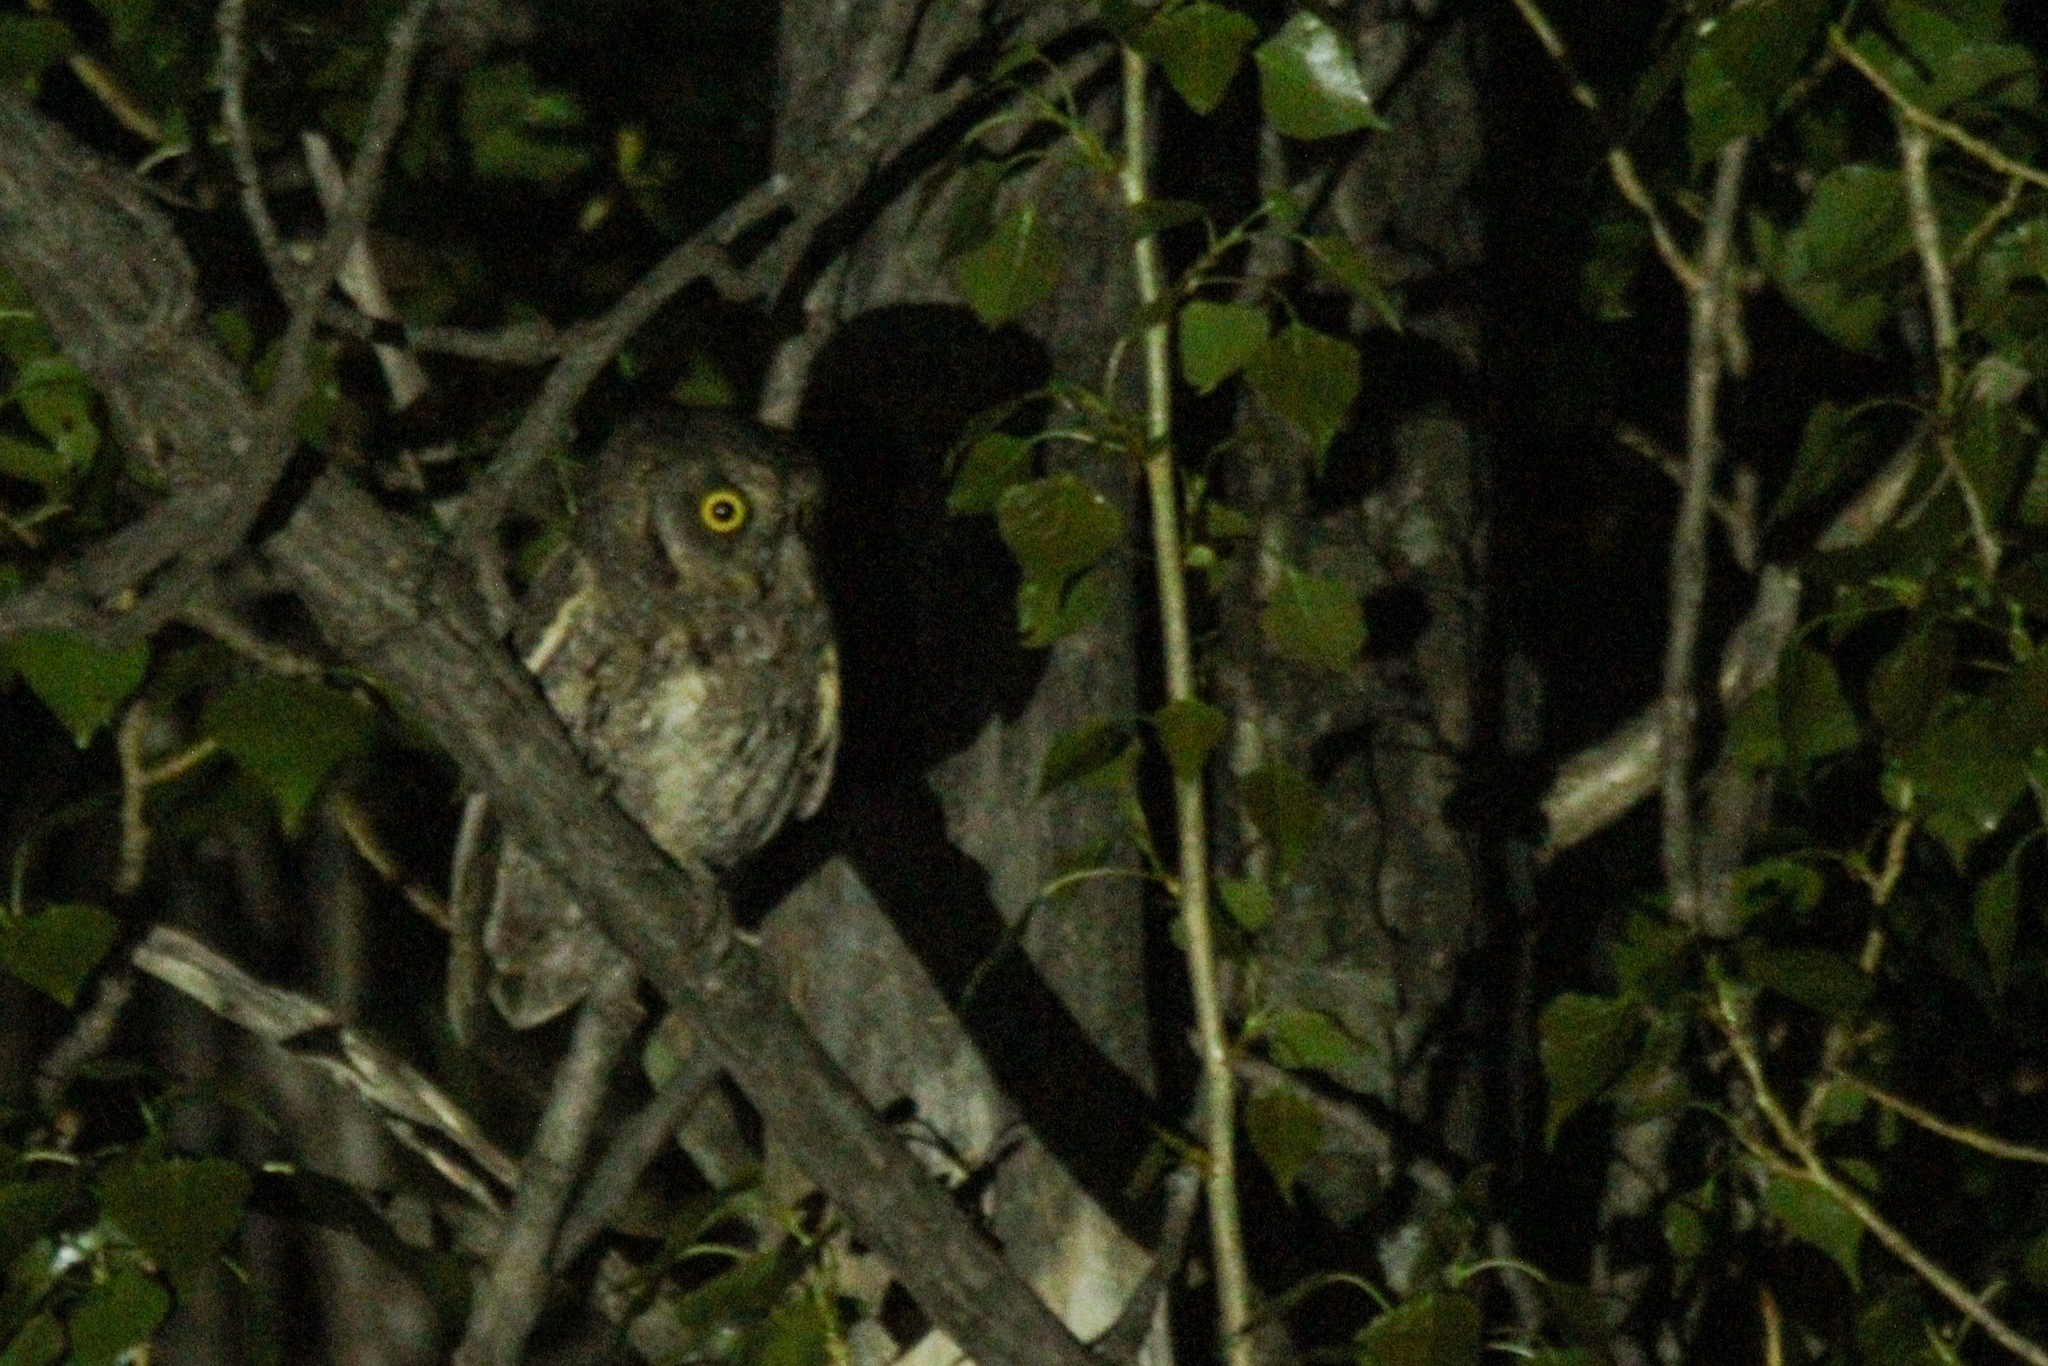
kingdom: Animalia
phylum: Chordata
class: Aves
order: Strigiformes
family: Strigidae
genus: Otus
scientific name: Otus sunia
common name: Oriental scops-owl
